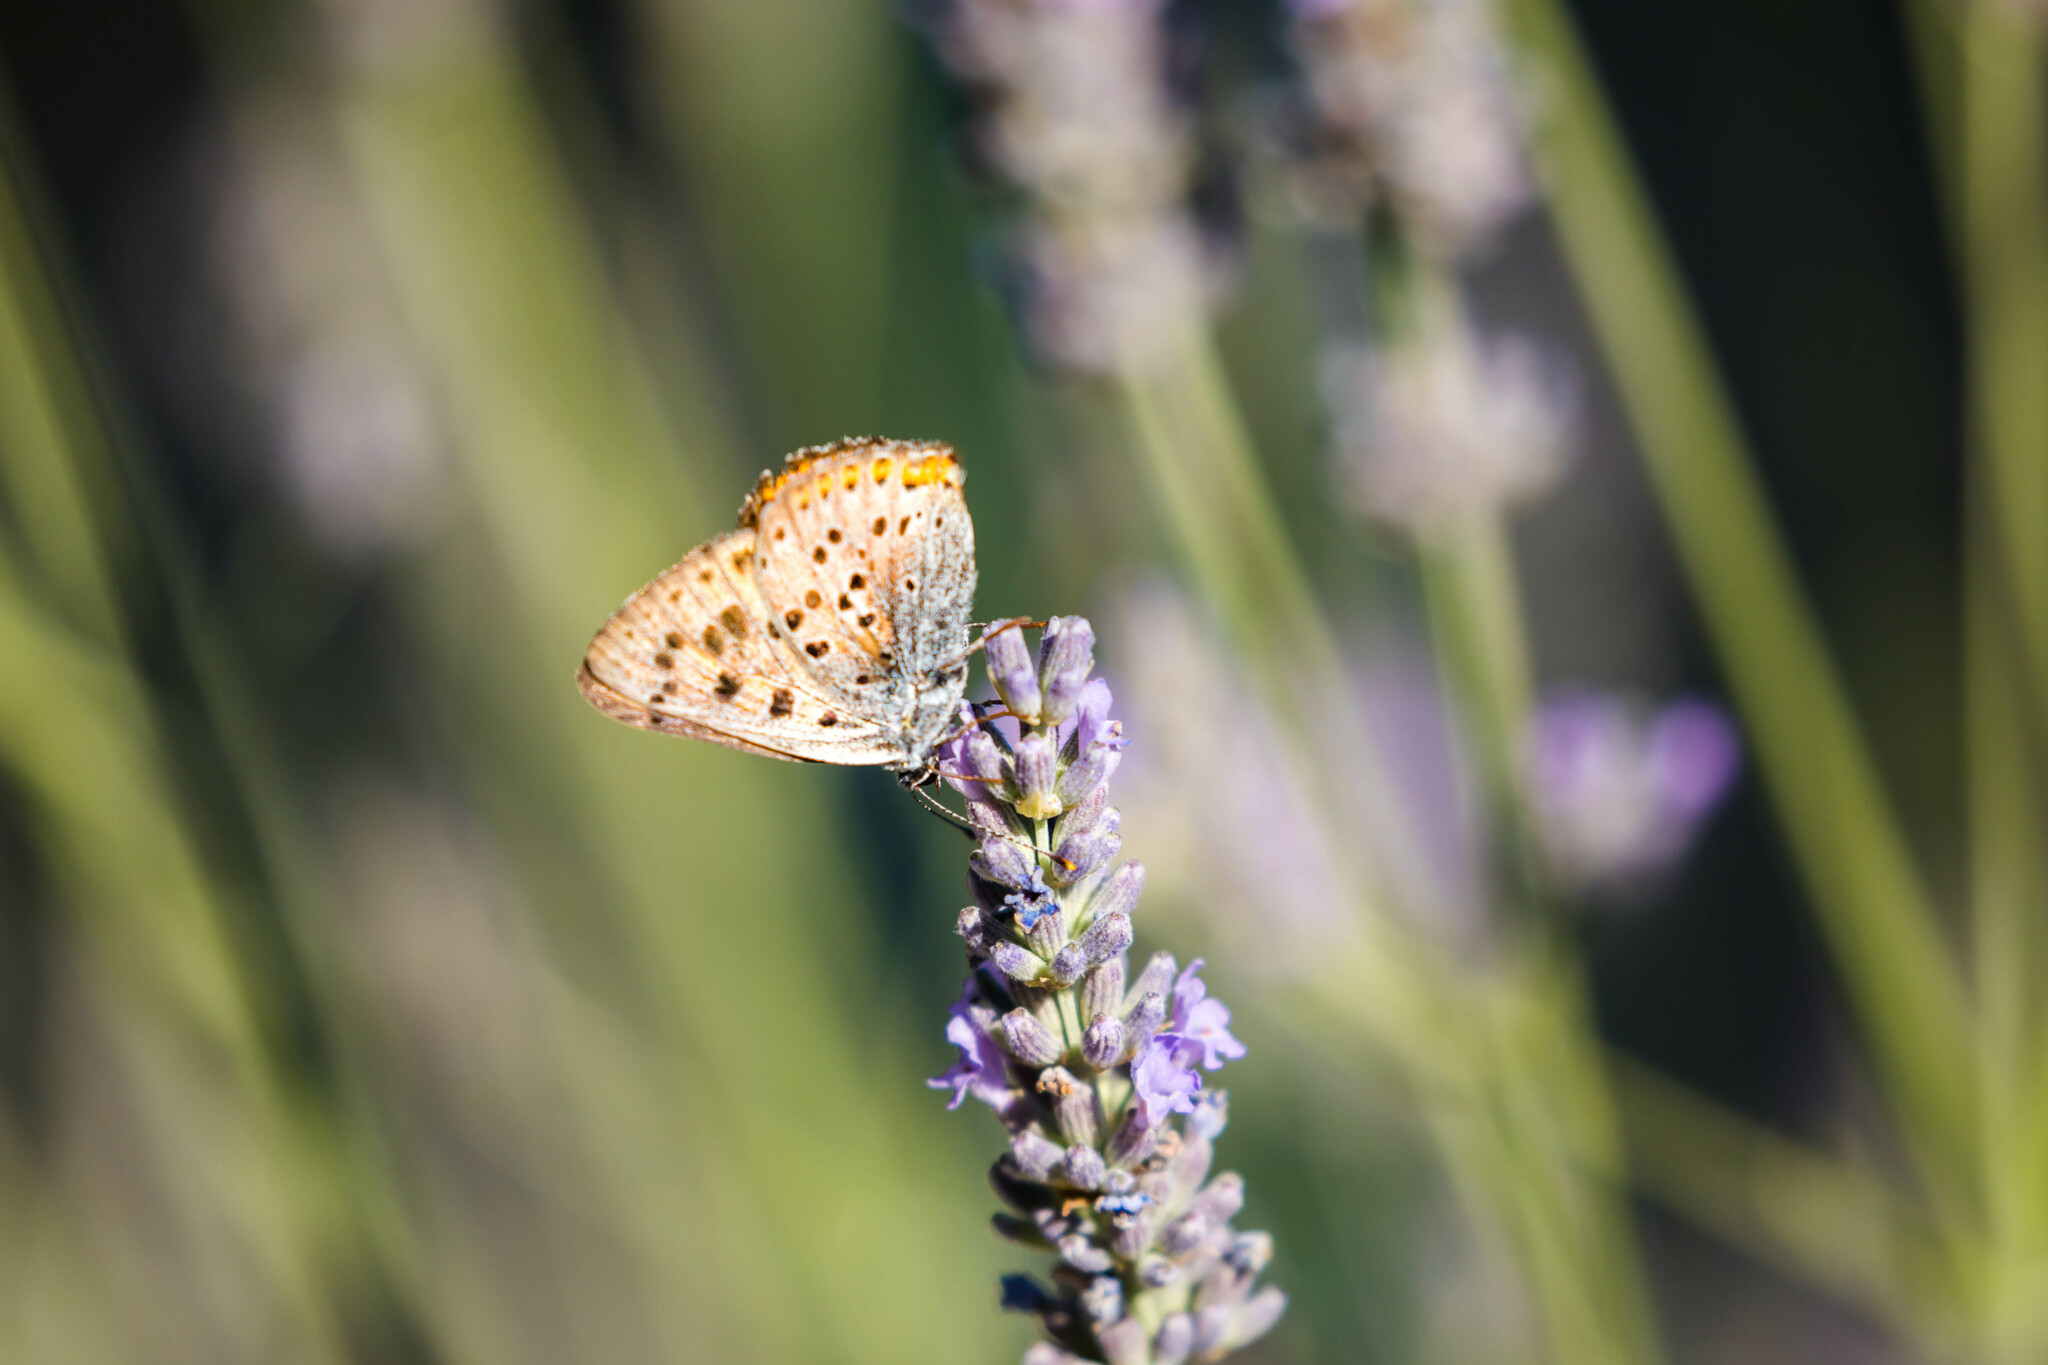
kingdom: Animalia
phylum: Arthropoda
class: Insecta
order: Lepidoptera
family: Lycaenidae
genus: Lycaena
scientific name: Lycaena alciphron
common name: Purple-shot copper
